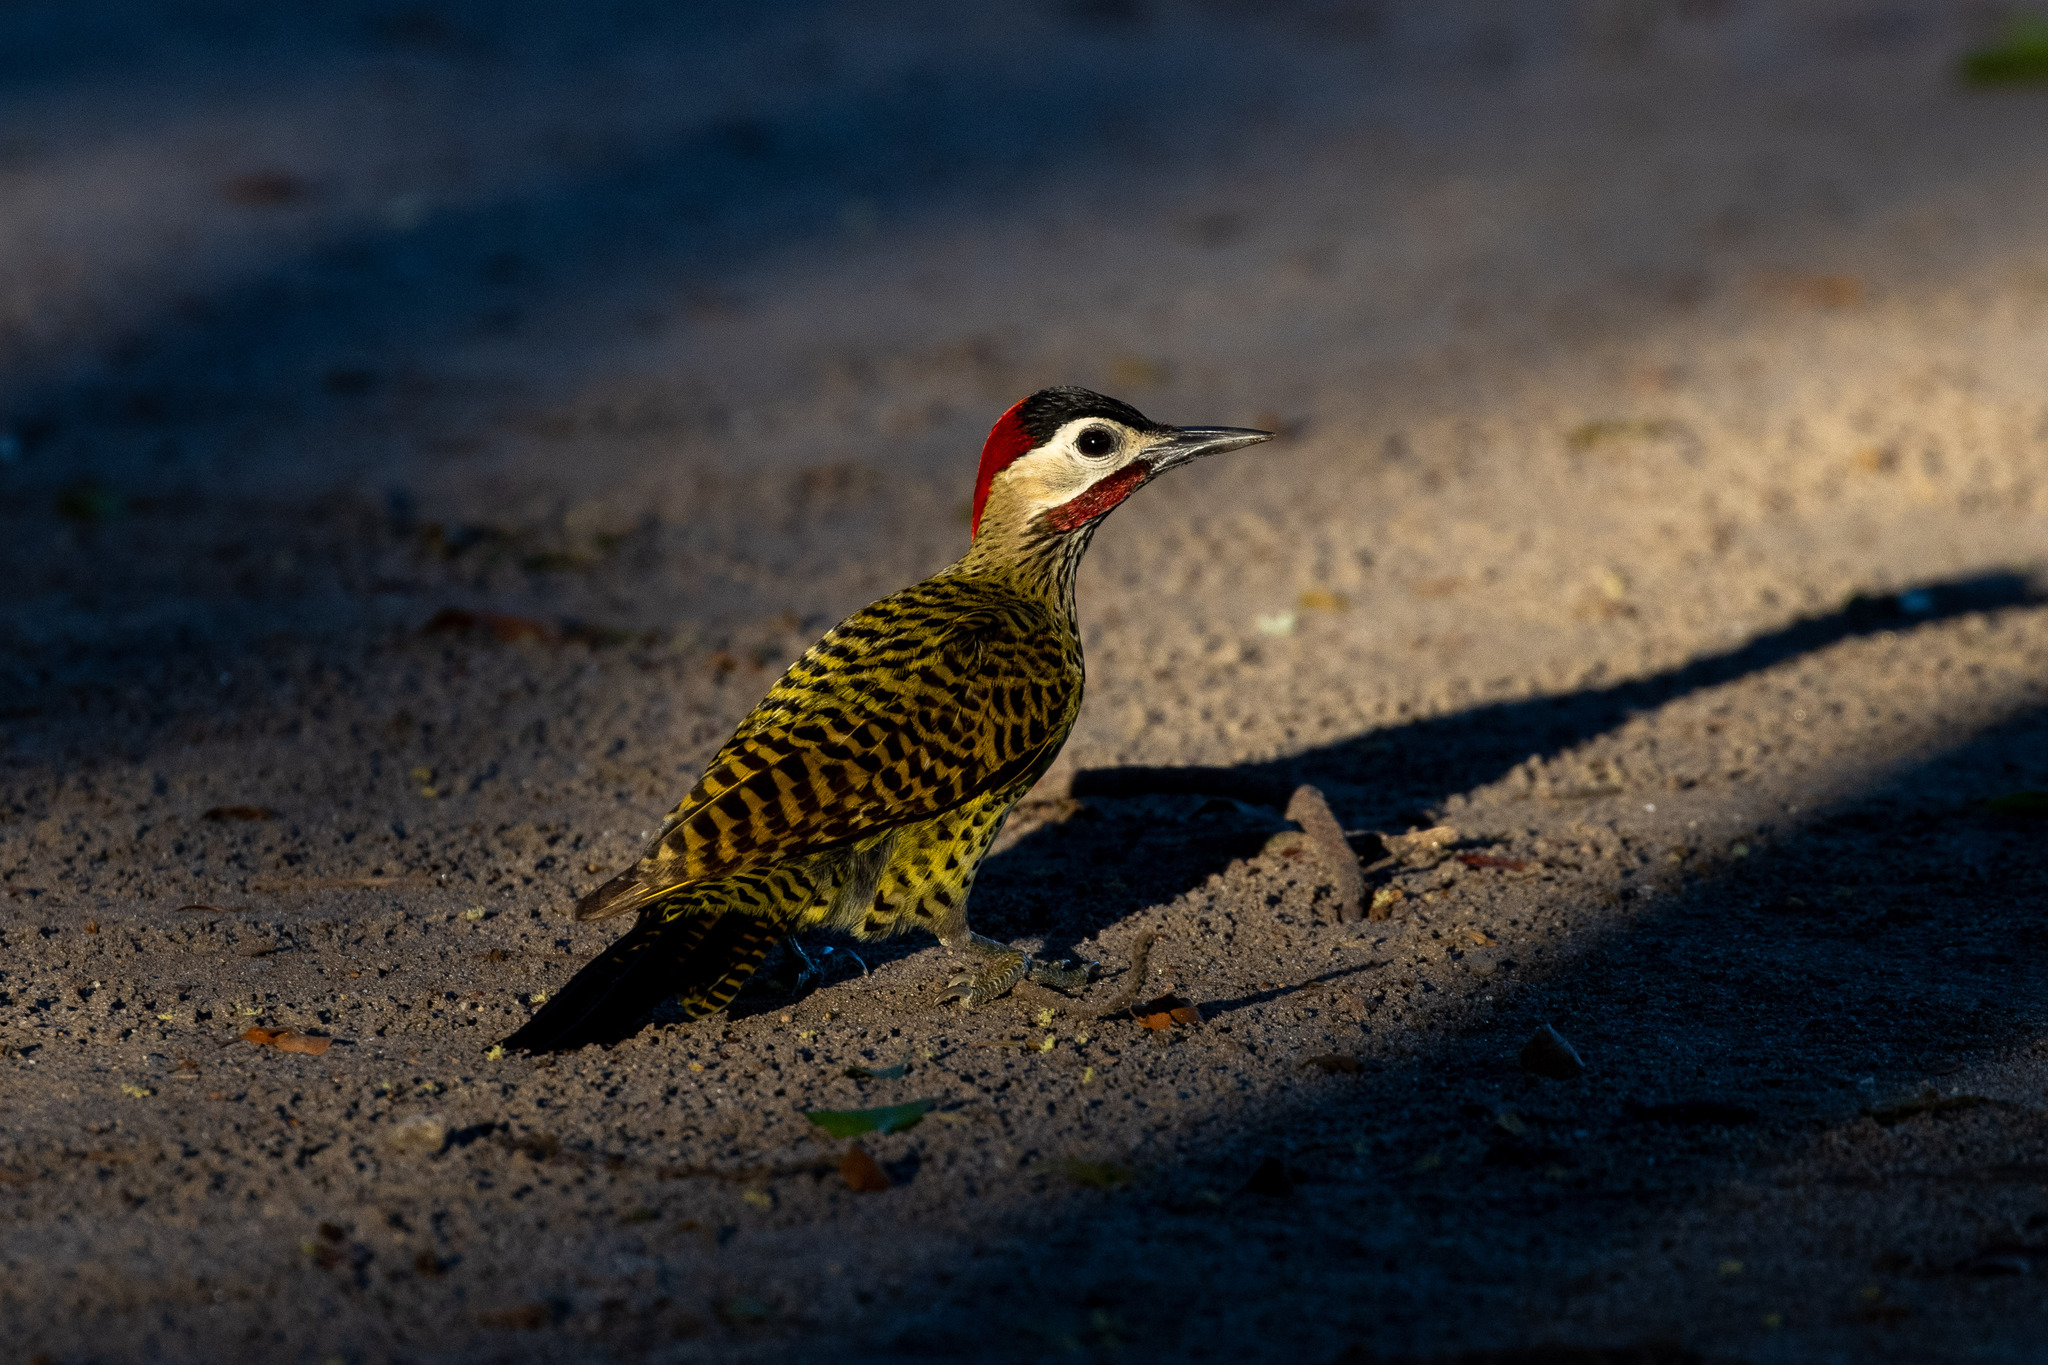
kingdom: Animalia
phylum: Chordata
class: Aves
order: Piciformes
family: Picidae
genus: Colaptes
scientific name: Colaptes melanochloros
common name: Green-barred woodpecker
